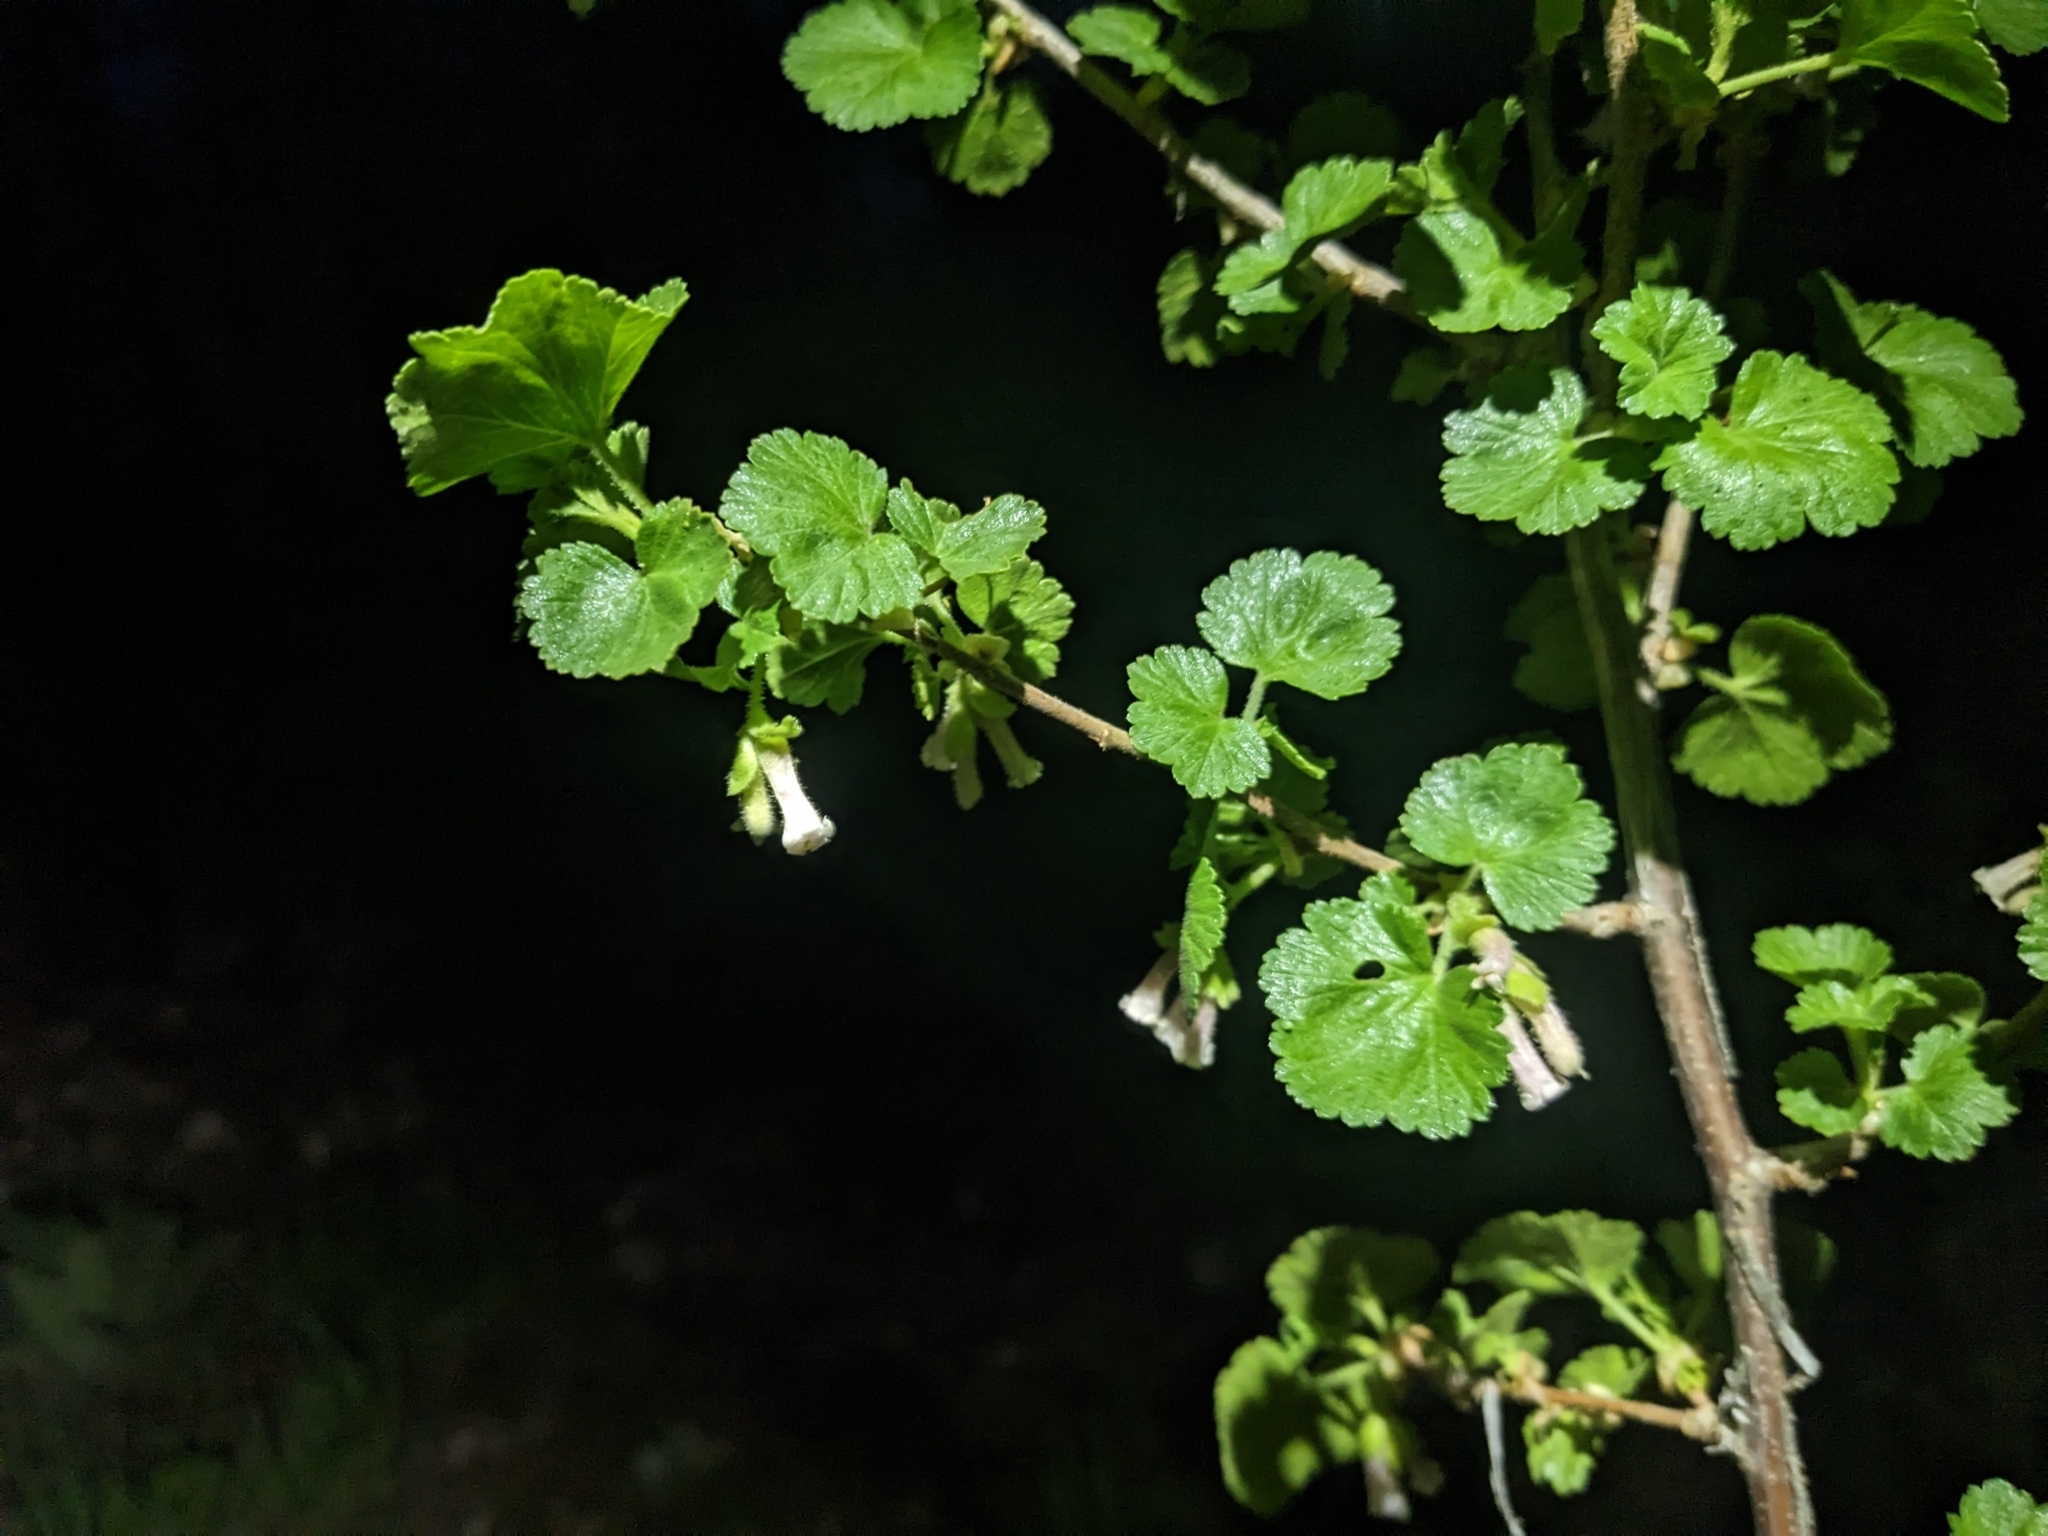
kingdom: Plantae
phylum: Tracheophyta
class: Magnoliopsida
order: Saxifragales
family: Grossulariaceae
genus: Ribes
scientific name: Ribes cereum
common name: Wax currant
